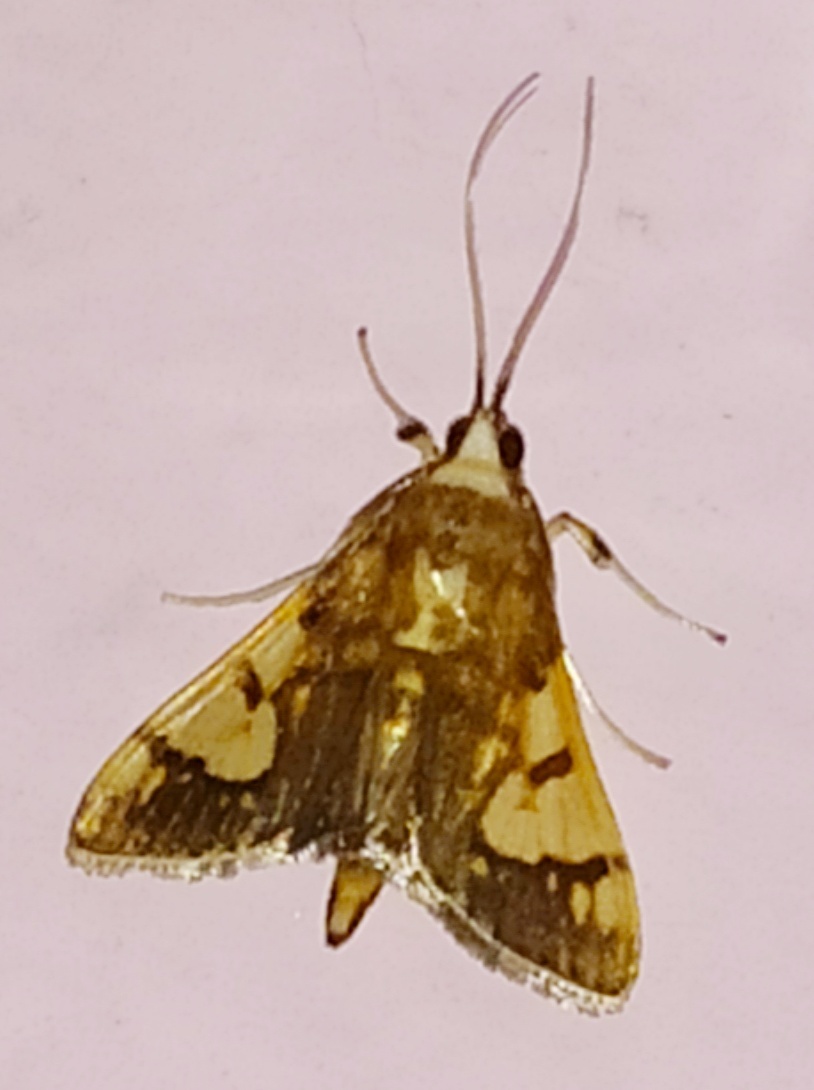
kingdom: Animalia
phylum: Arthropoda
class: Insecta
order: Lepidoptera
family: Crambidae
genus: Ulopeza
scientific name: Ulopeza idyalis
